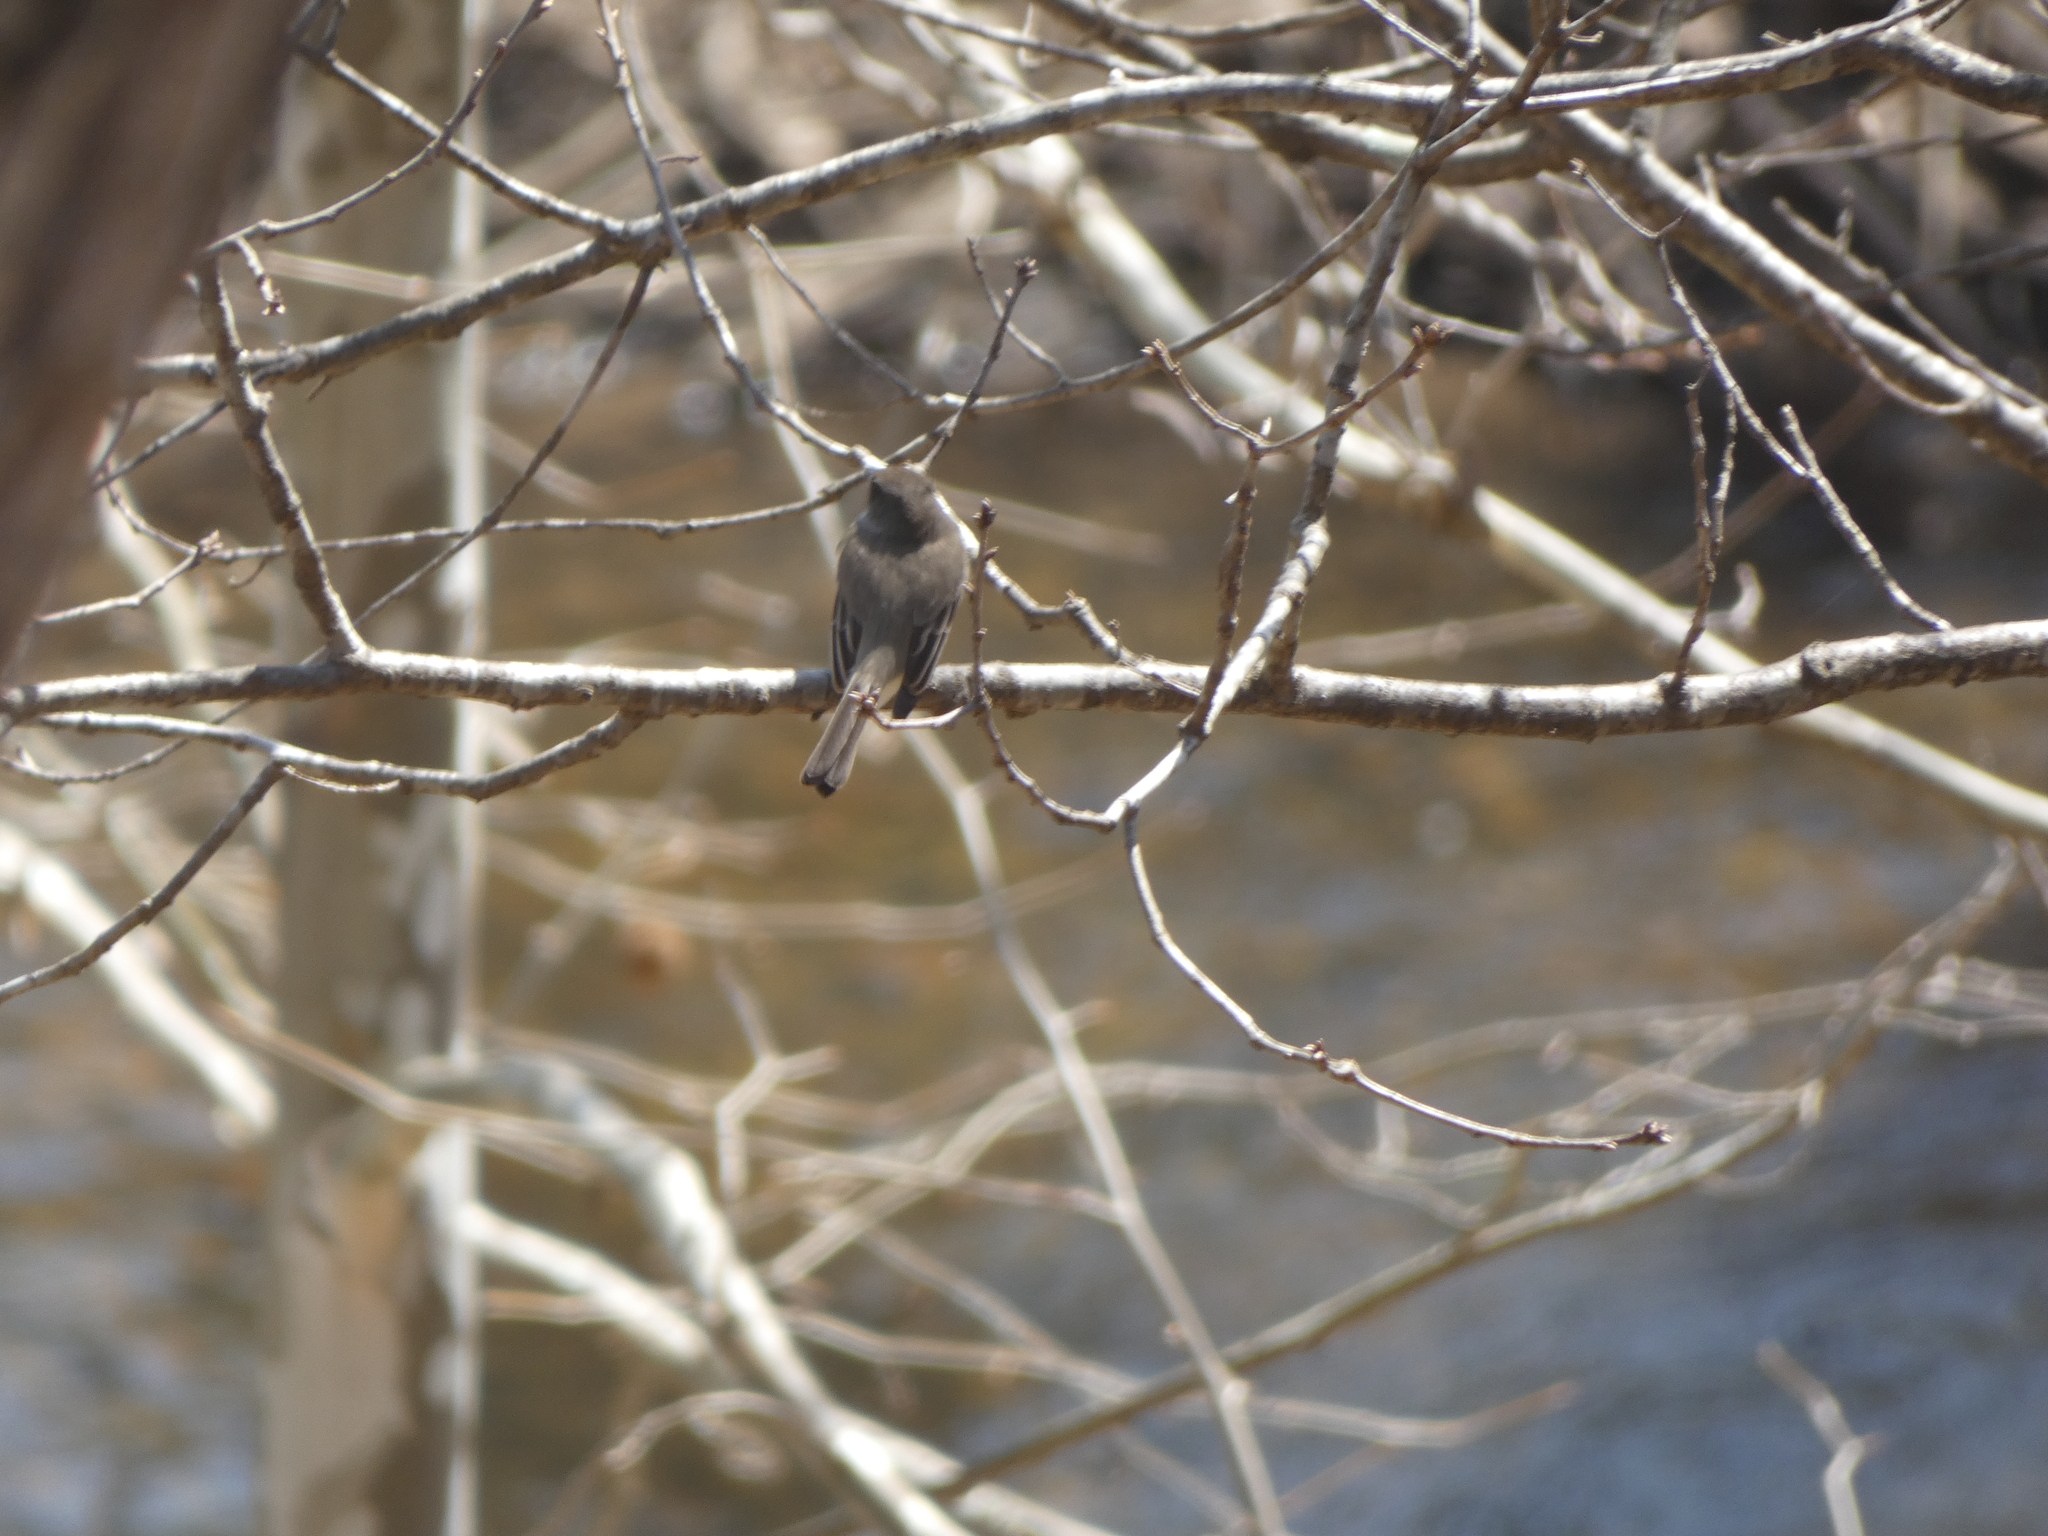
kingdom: Animalia
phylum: Chordata
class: Aves
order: Passeriformes
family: Tyrannidae
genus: Sayornis
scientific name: Sayornis phoebe
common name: Eastern phoebe
